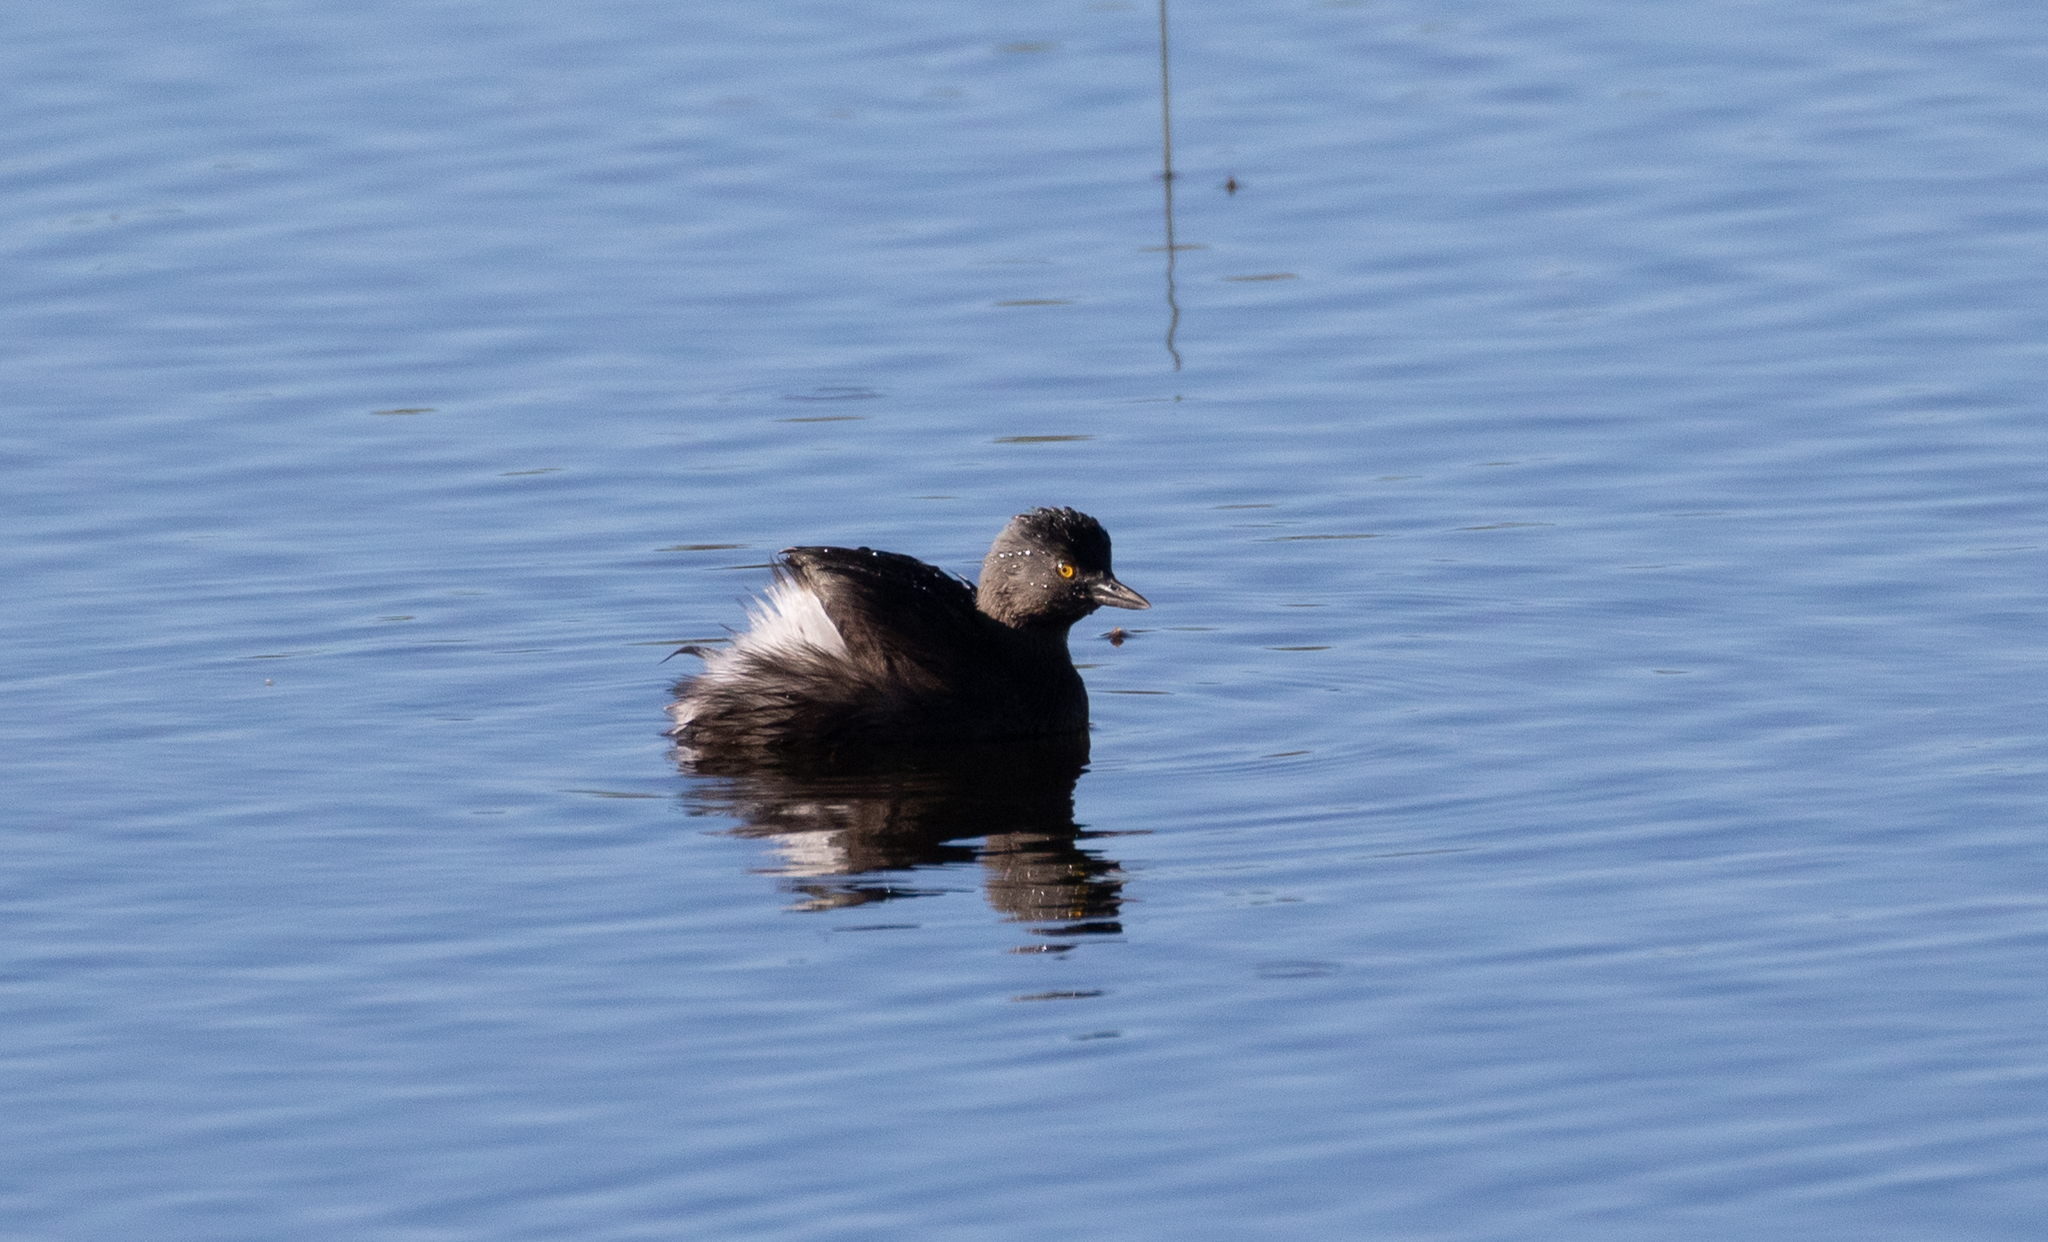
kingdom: Animalia
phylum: Chordata
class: Aves
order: Podicipediformes
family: Podicipedidae
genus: Tachybaptus
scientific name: Tachybaptus dominicus
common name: Least grebe
